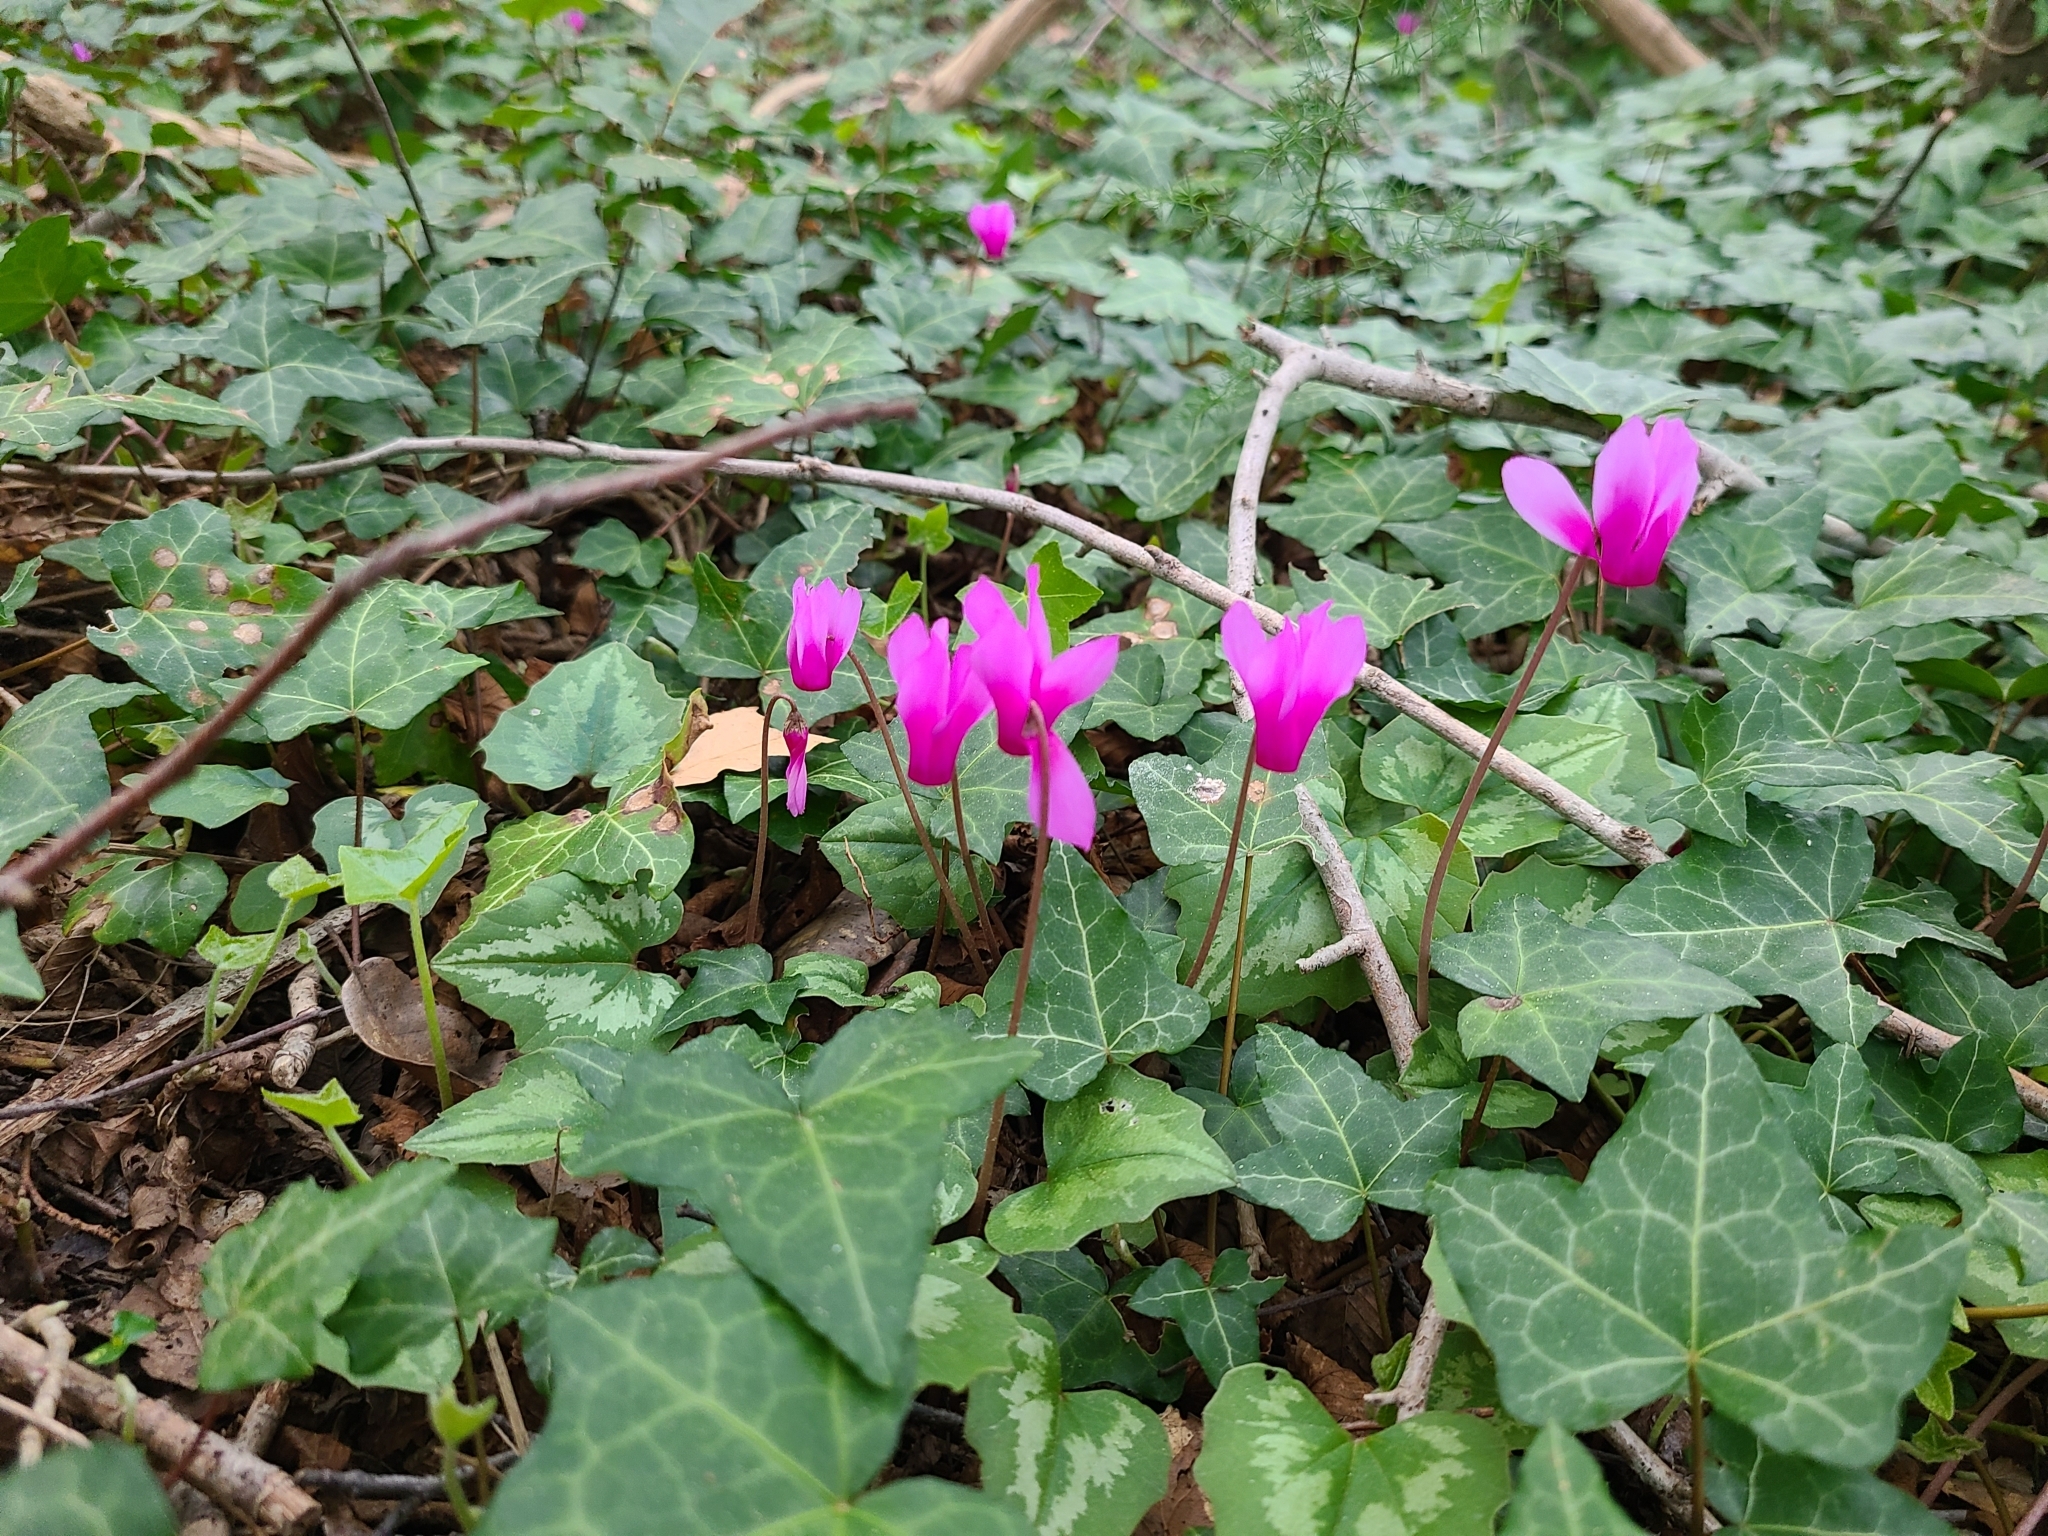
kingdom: Plantae
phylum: Tracheophyta
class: Magnoliopsida
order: Ericales
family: Primulaceae
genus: Cyclamen
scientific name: Cyclamen repandum
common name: Spring sowbread
